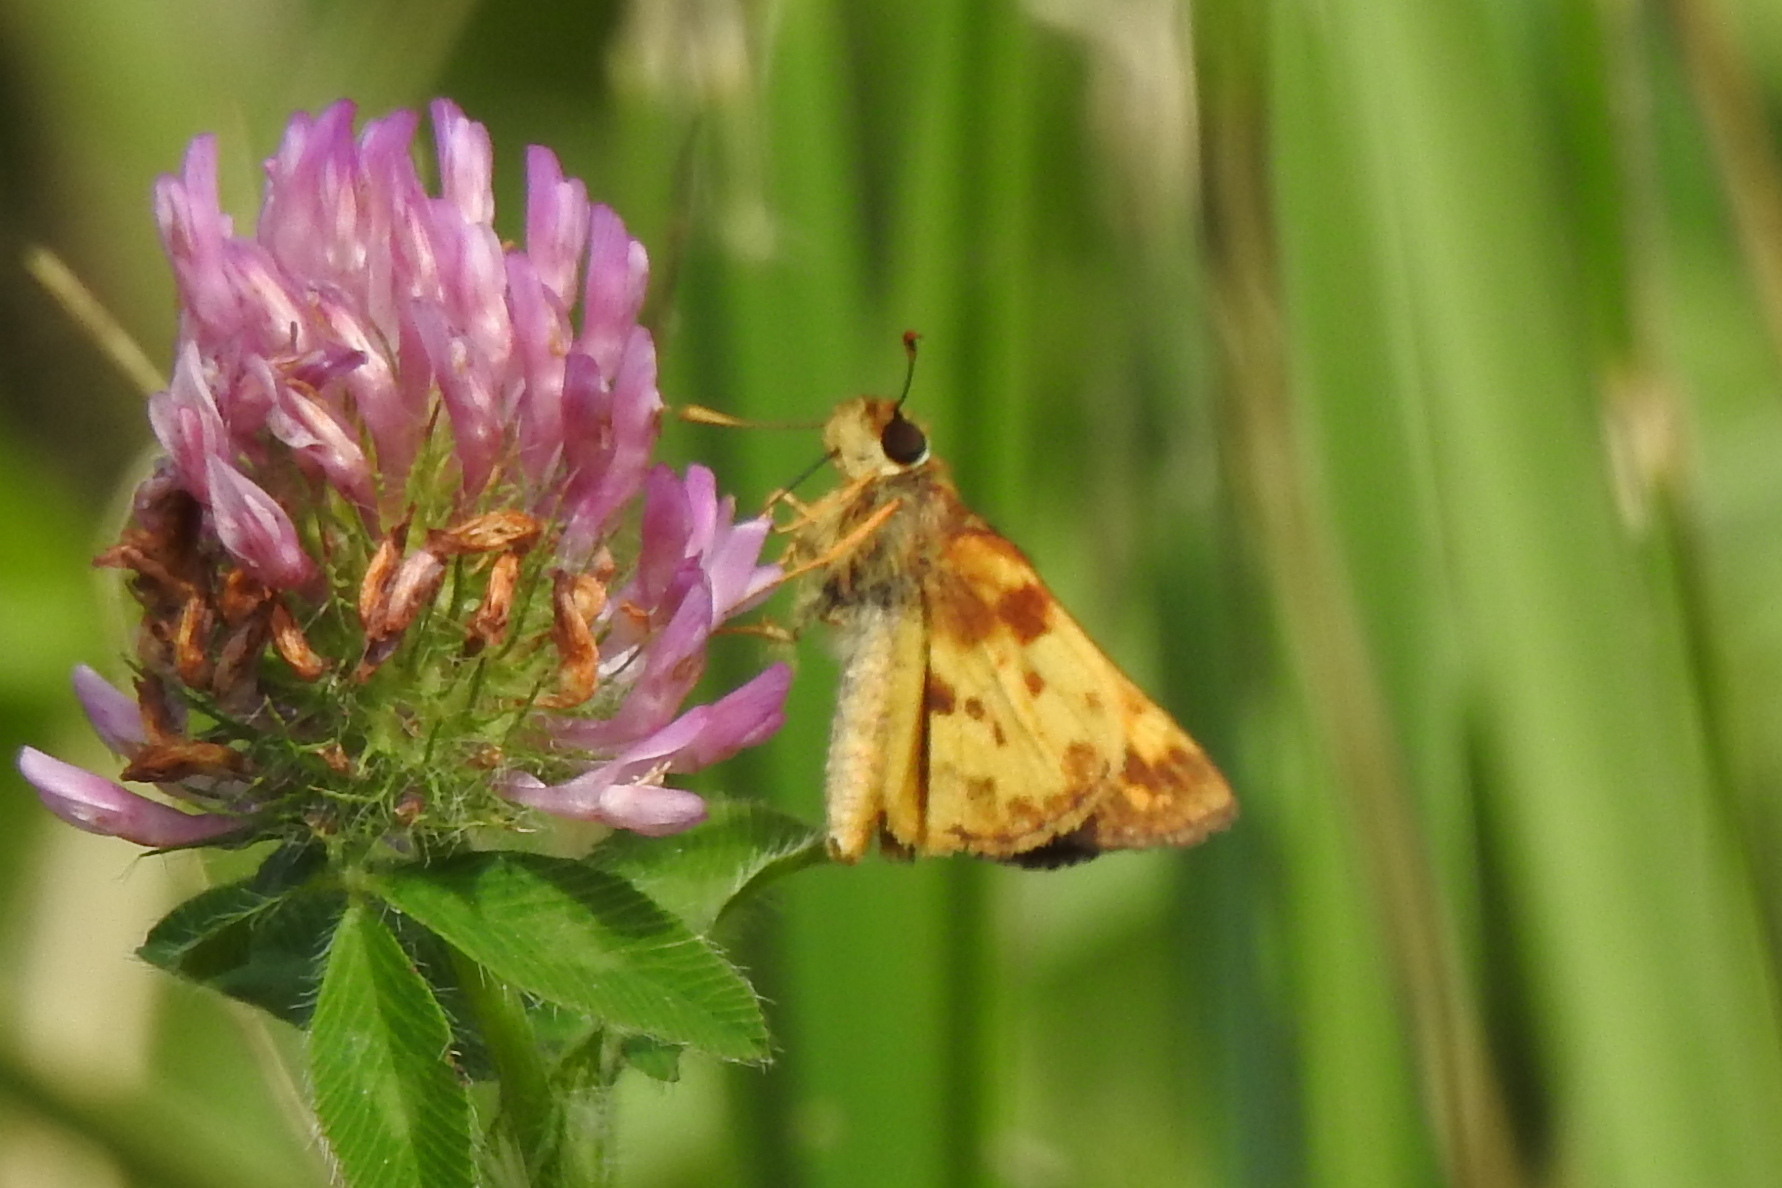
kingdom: Animalia
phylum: Arthropoda
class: Insecta
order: Lepidoptera
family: Hesperiidae
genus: Lon
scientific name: Lon zabulon
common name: Zabulon skipper
